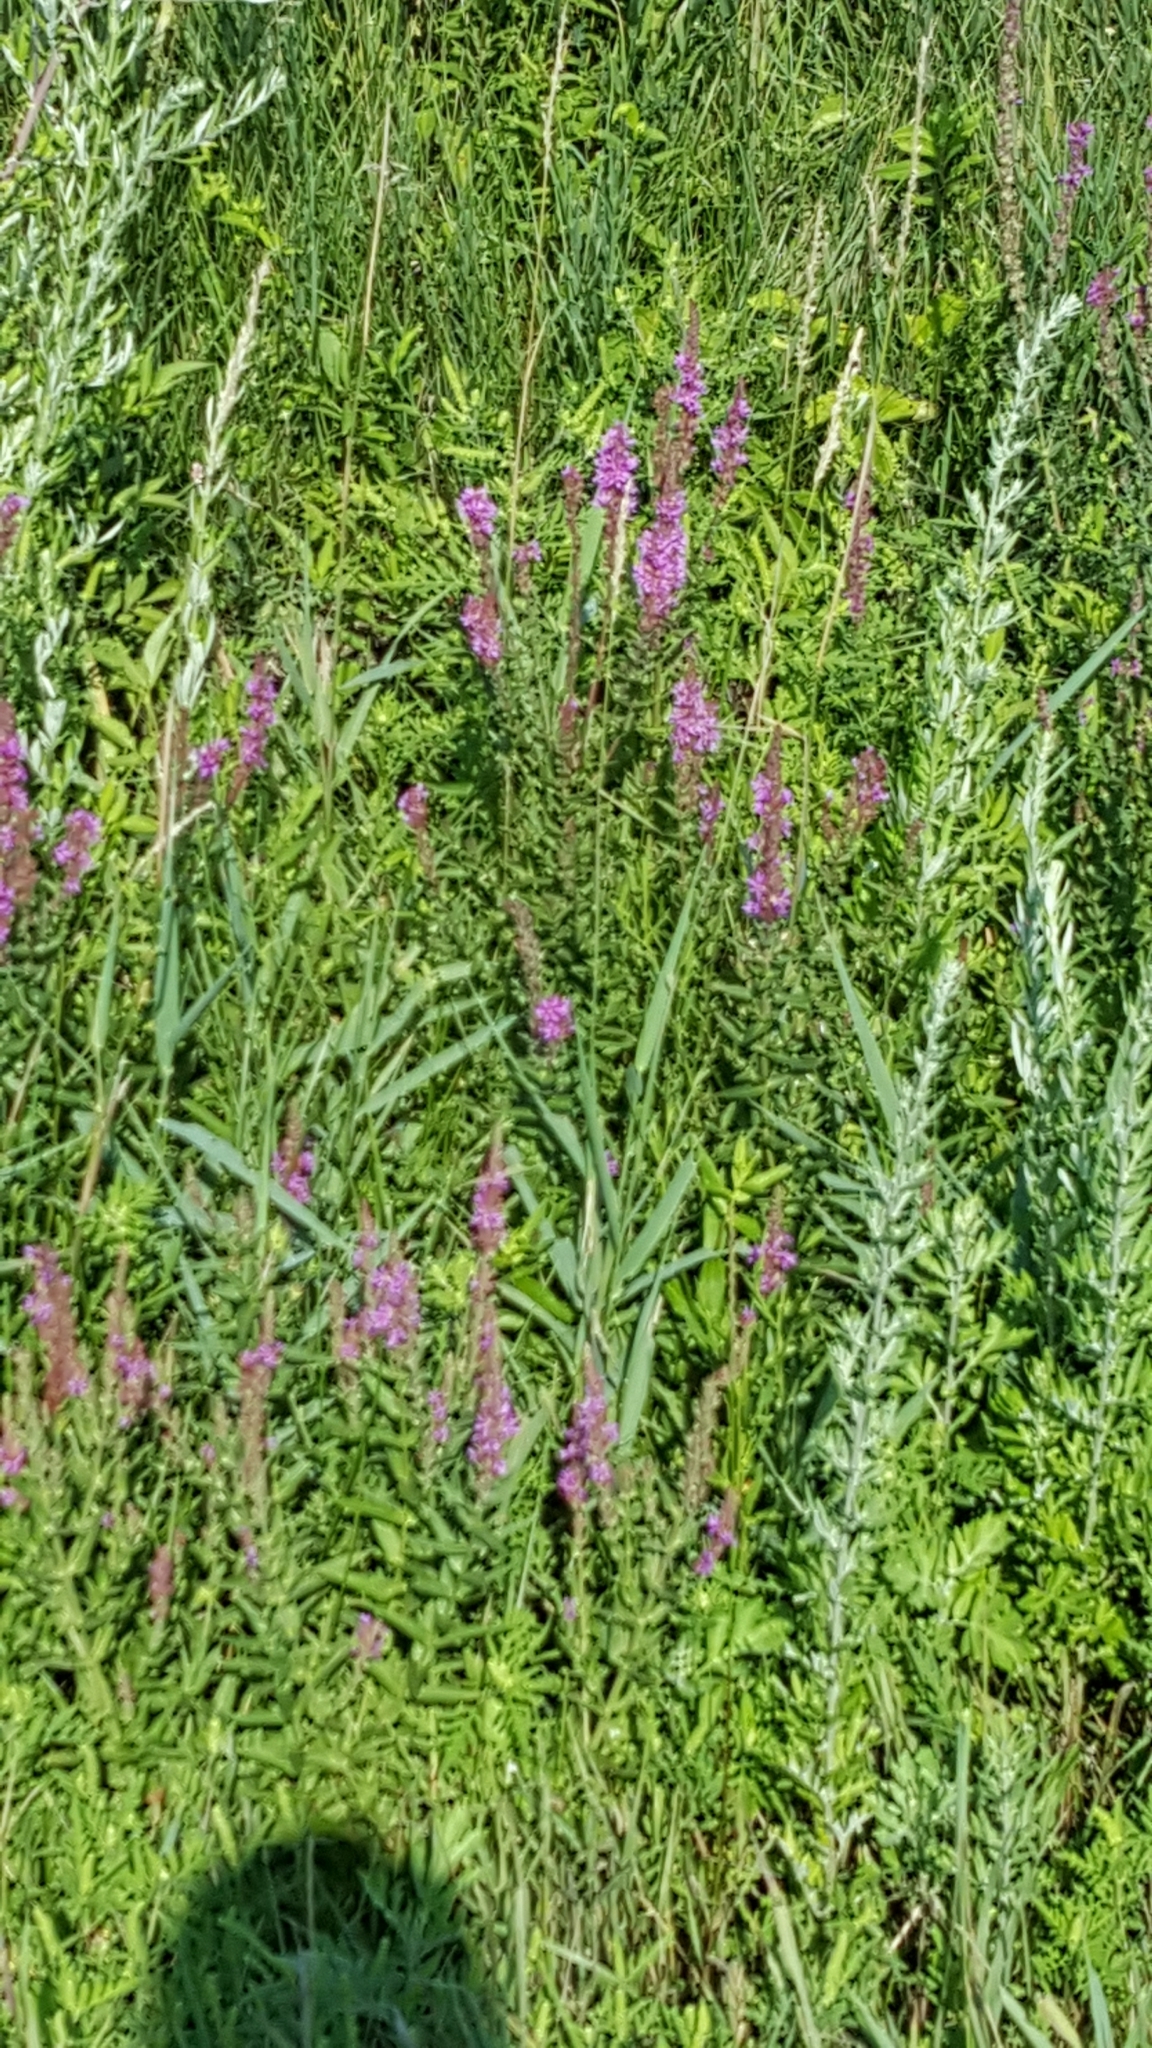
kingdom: Plantae
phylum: Tracheophyta
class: Magnoliopsida
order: Myrtales
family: Lythraceae
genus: Lythrum
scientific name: Lythrum salicaria
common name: Purple loosestrife
